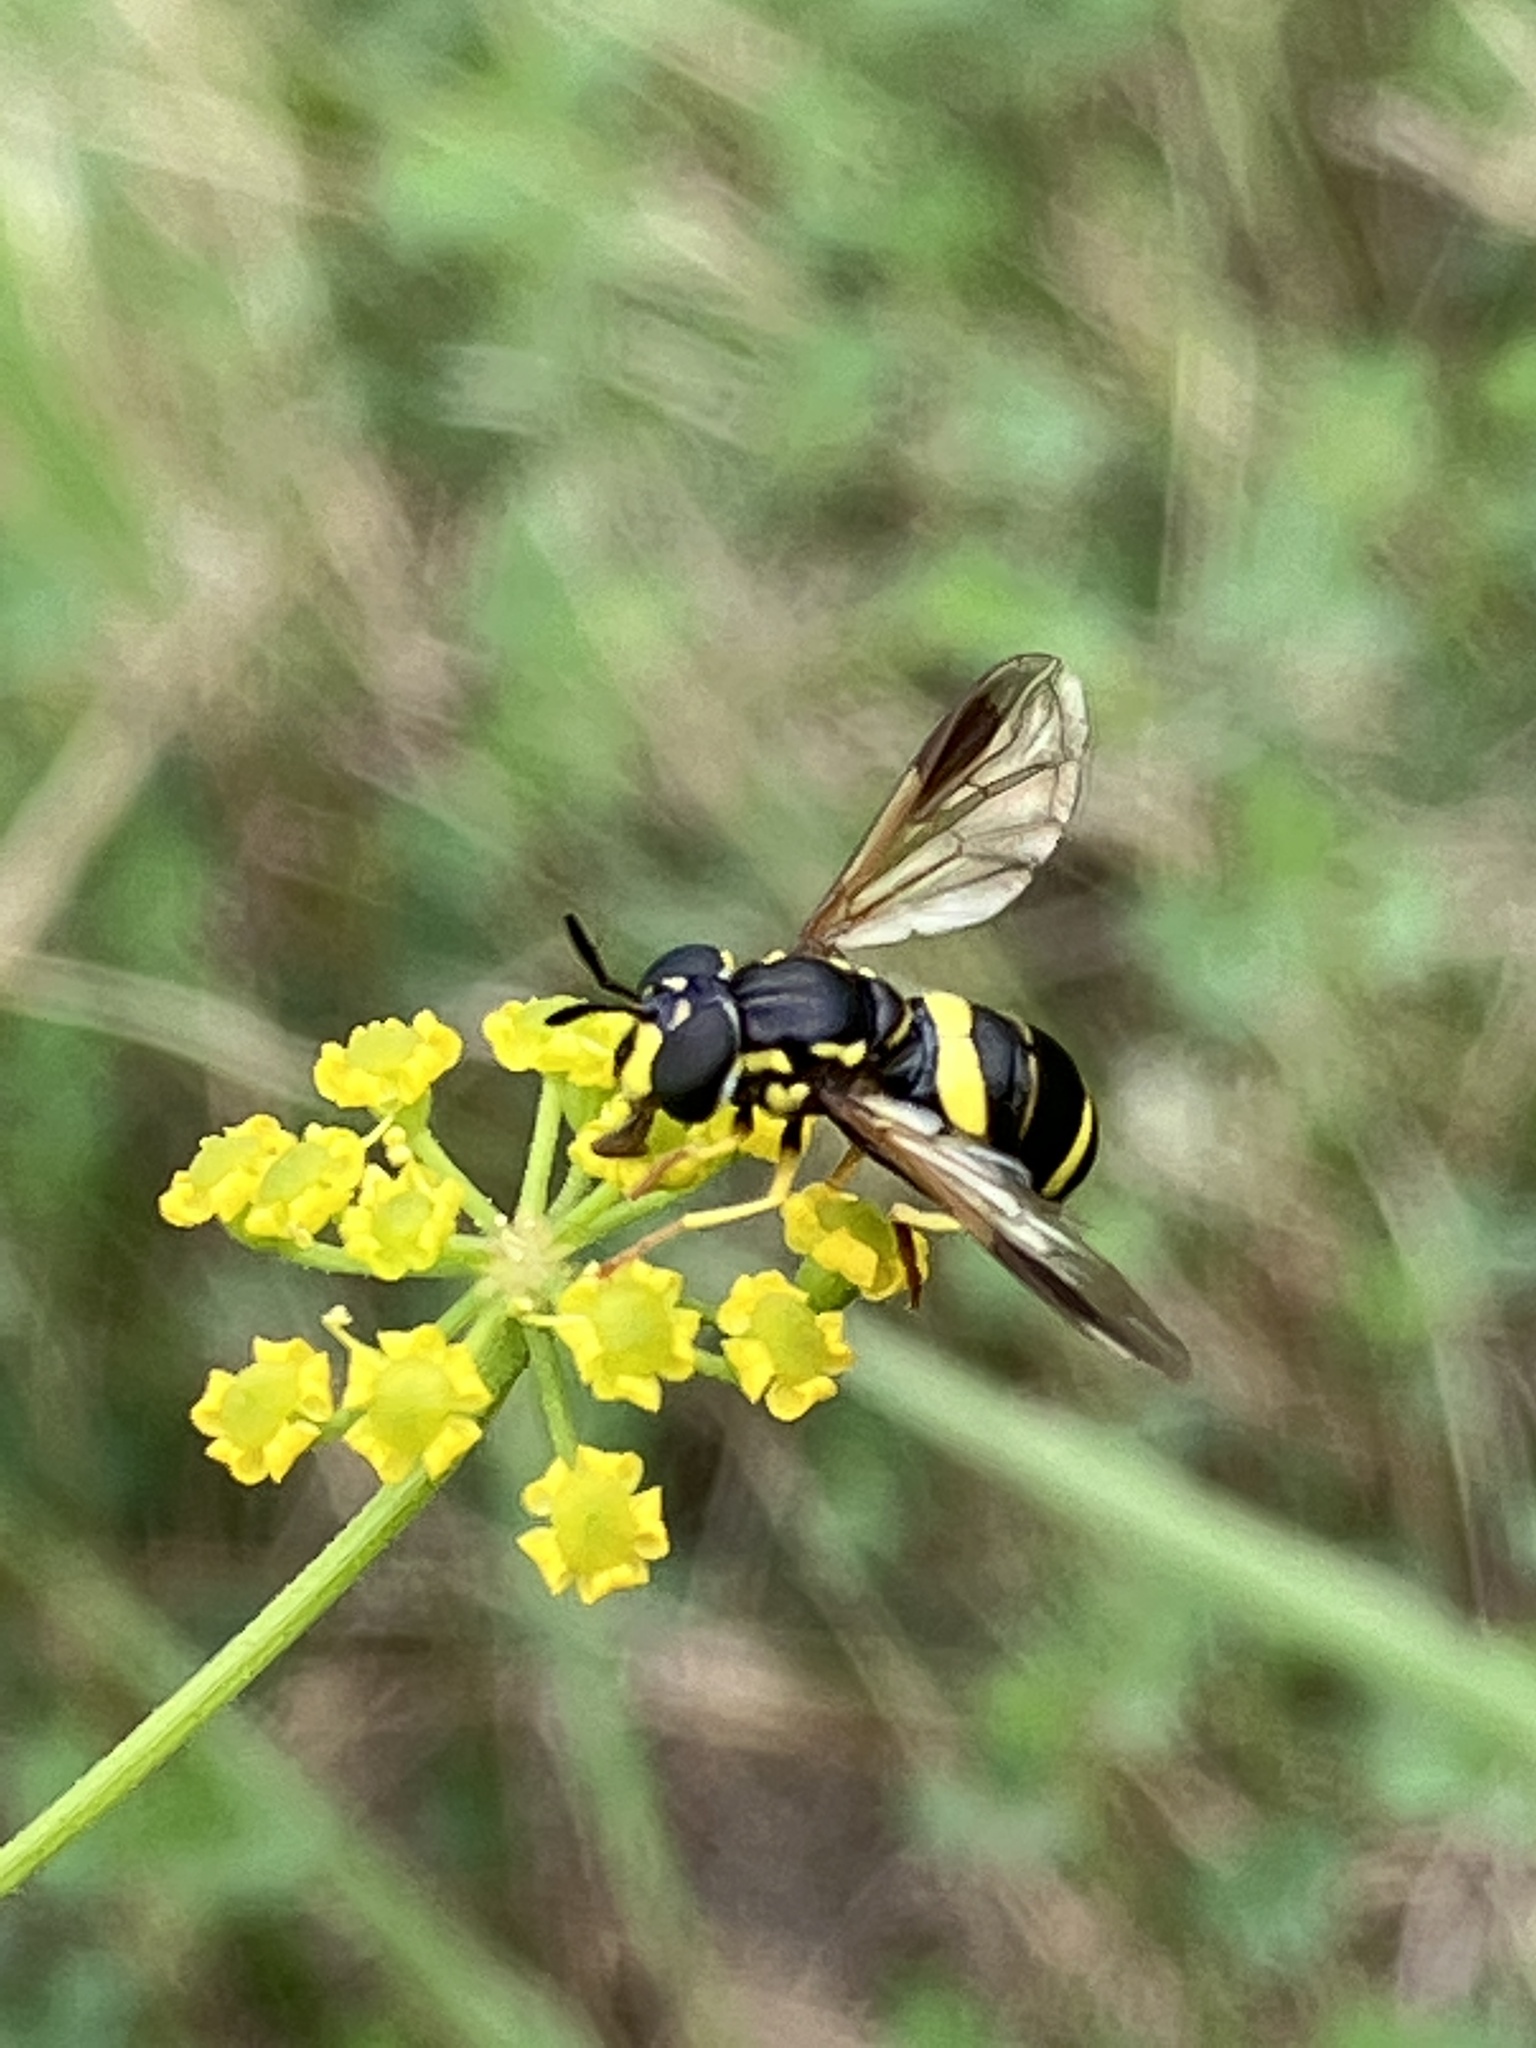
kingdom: Animalia
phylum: Arthropoda
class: Insecta
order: Diptera
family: Syrphidae
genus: Chrysotoxum
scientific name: Chrysotoxum bicincta
